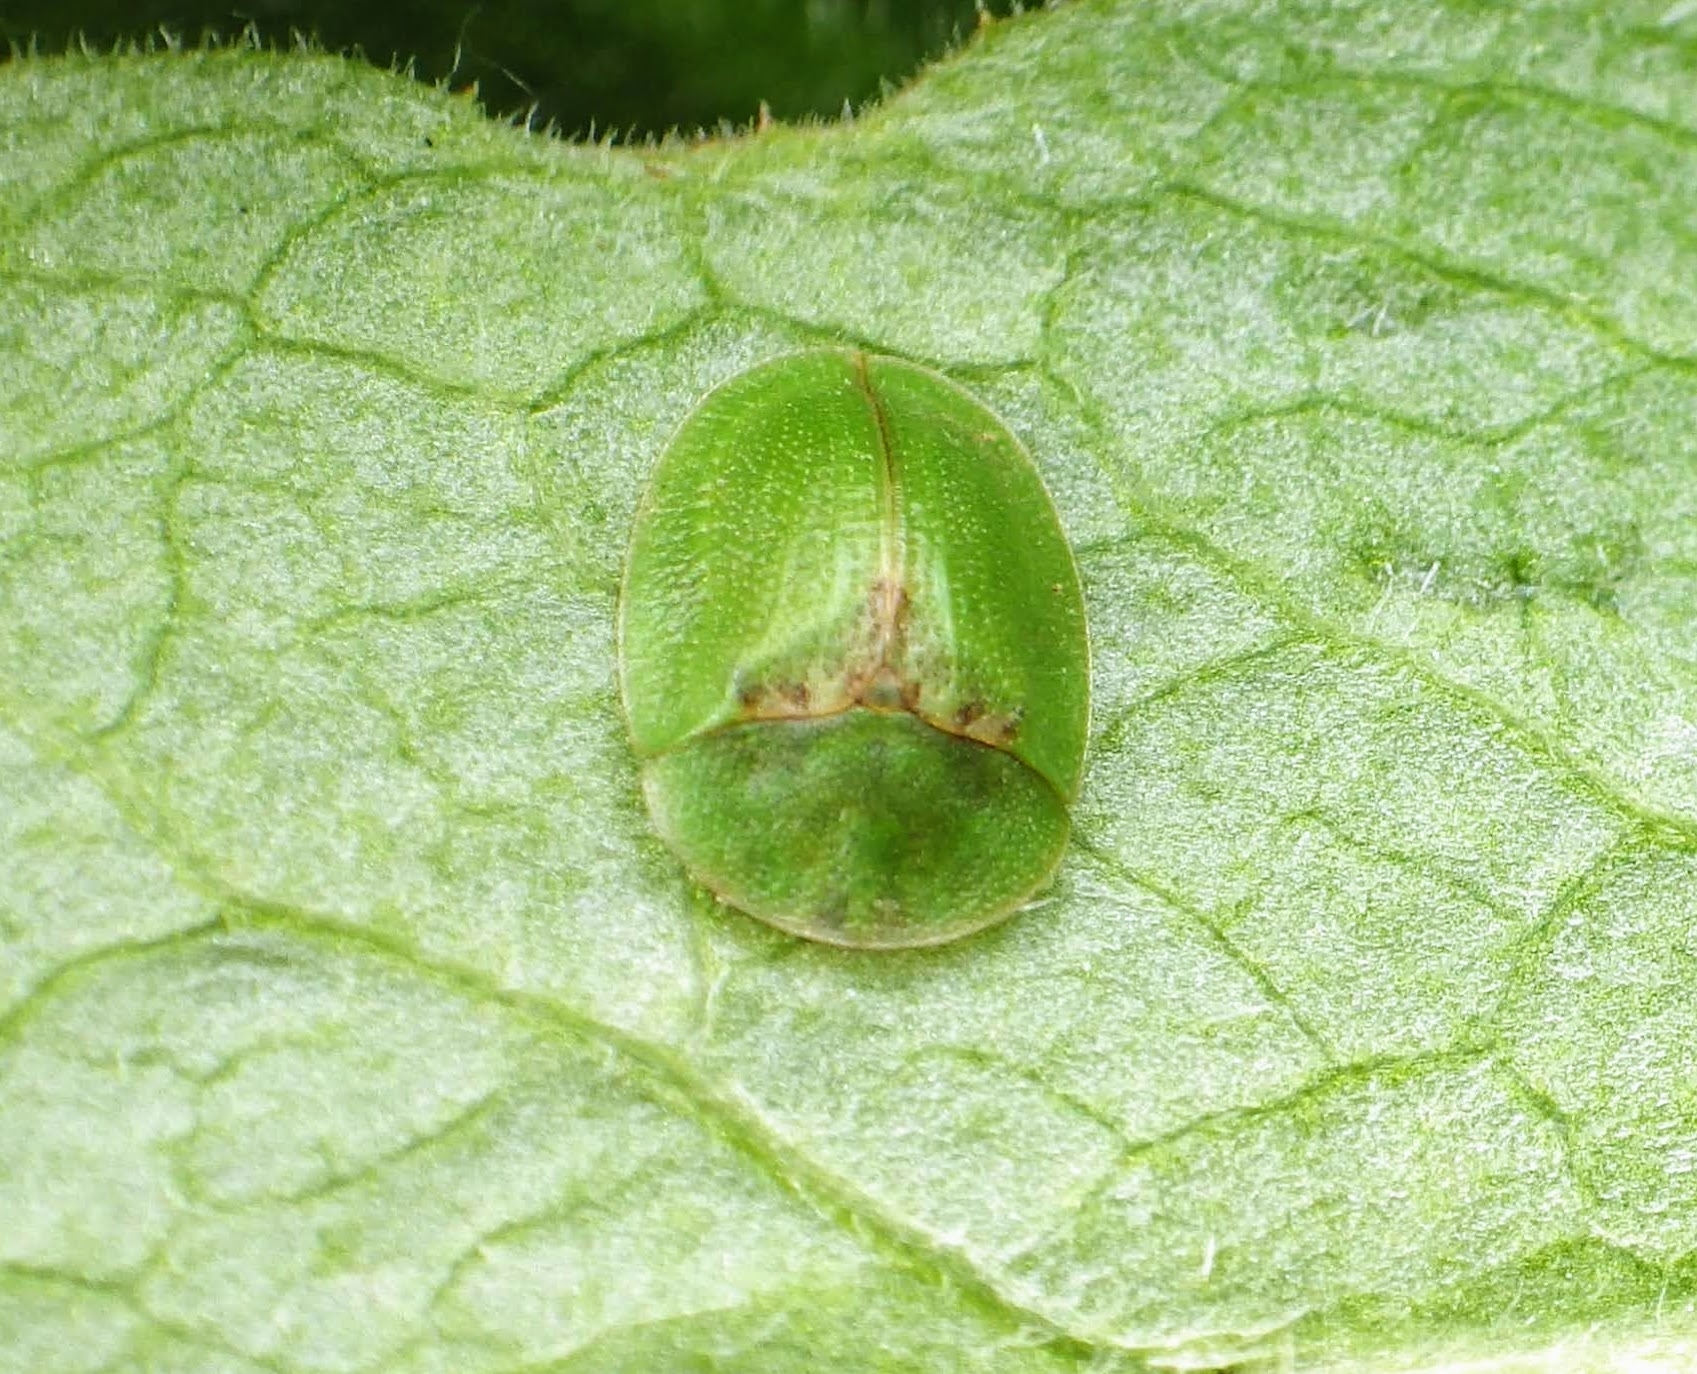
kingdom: Animalia
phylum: Arthropoda
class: Insecta
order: Coleoptera
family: Chrysomelidae
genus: Cassida
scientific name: Cassida rubiginosa
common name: Thistle tortoise beetle
